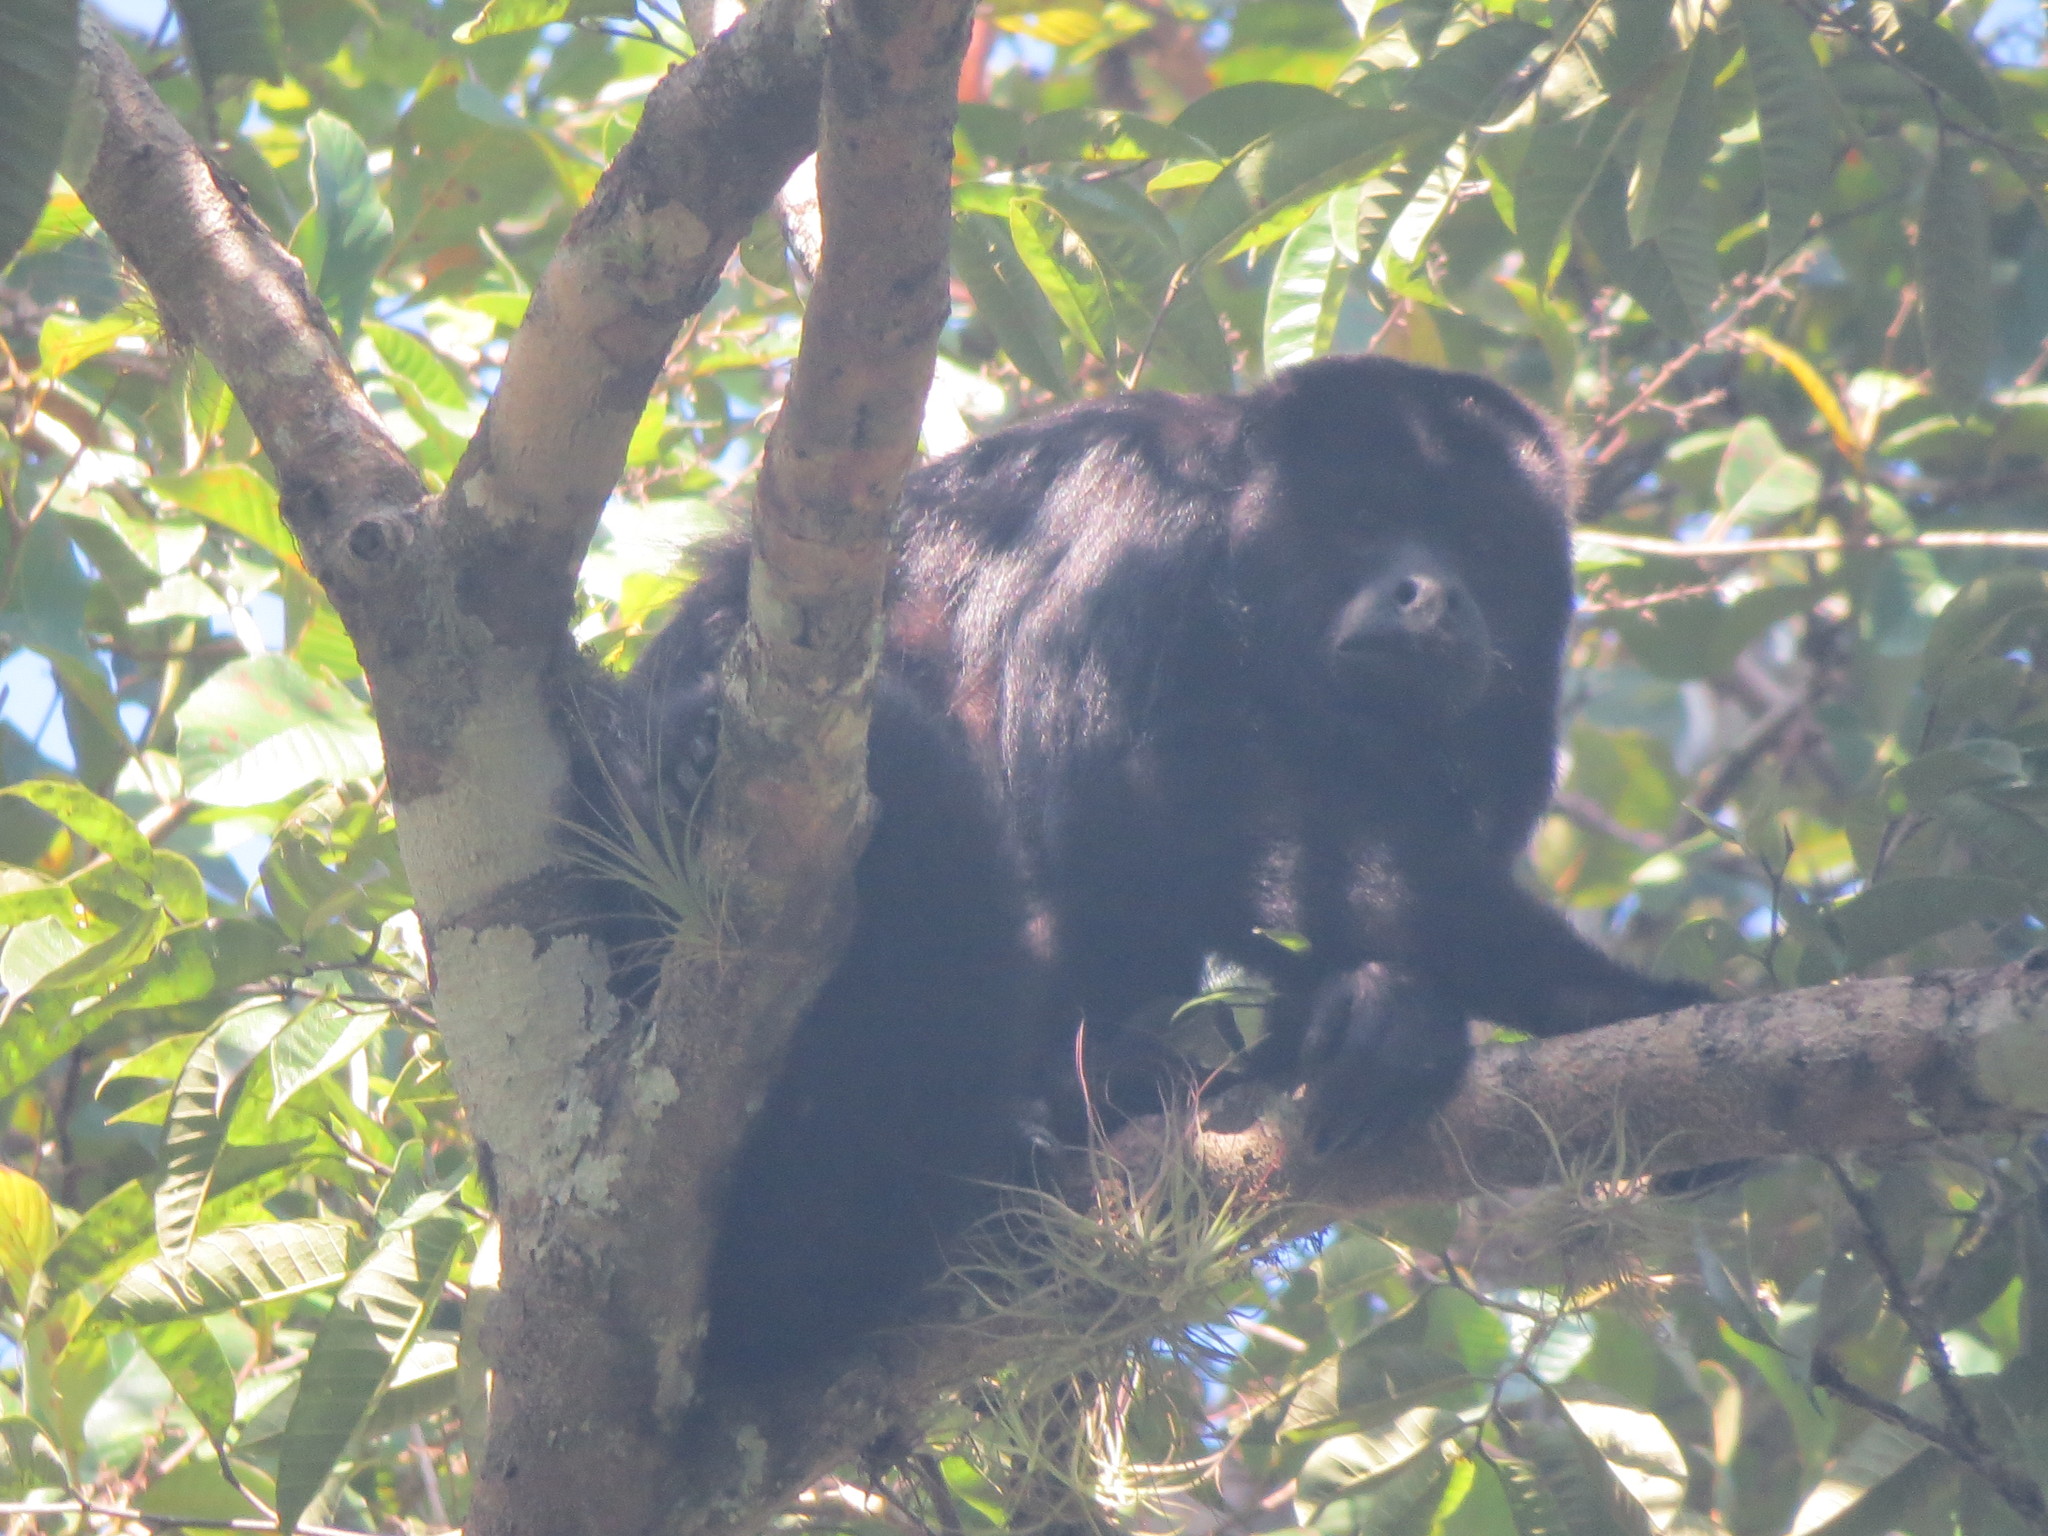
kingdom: Animalia
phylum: Chordata
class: Mammalia
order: Primates
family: Atelidae
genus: Alouatta
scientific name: Alouatta pigra
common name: Guatemalan black howler
